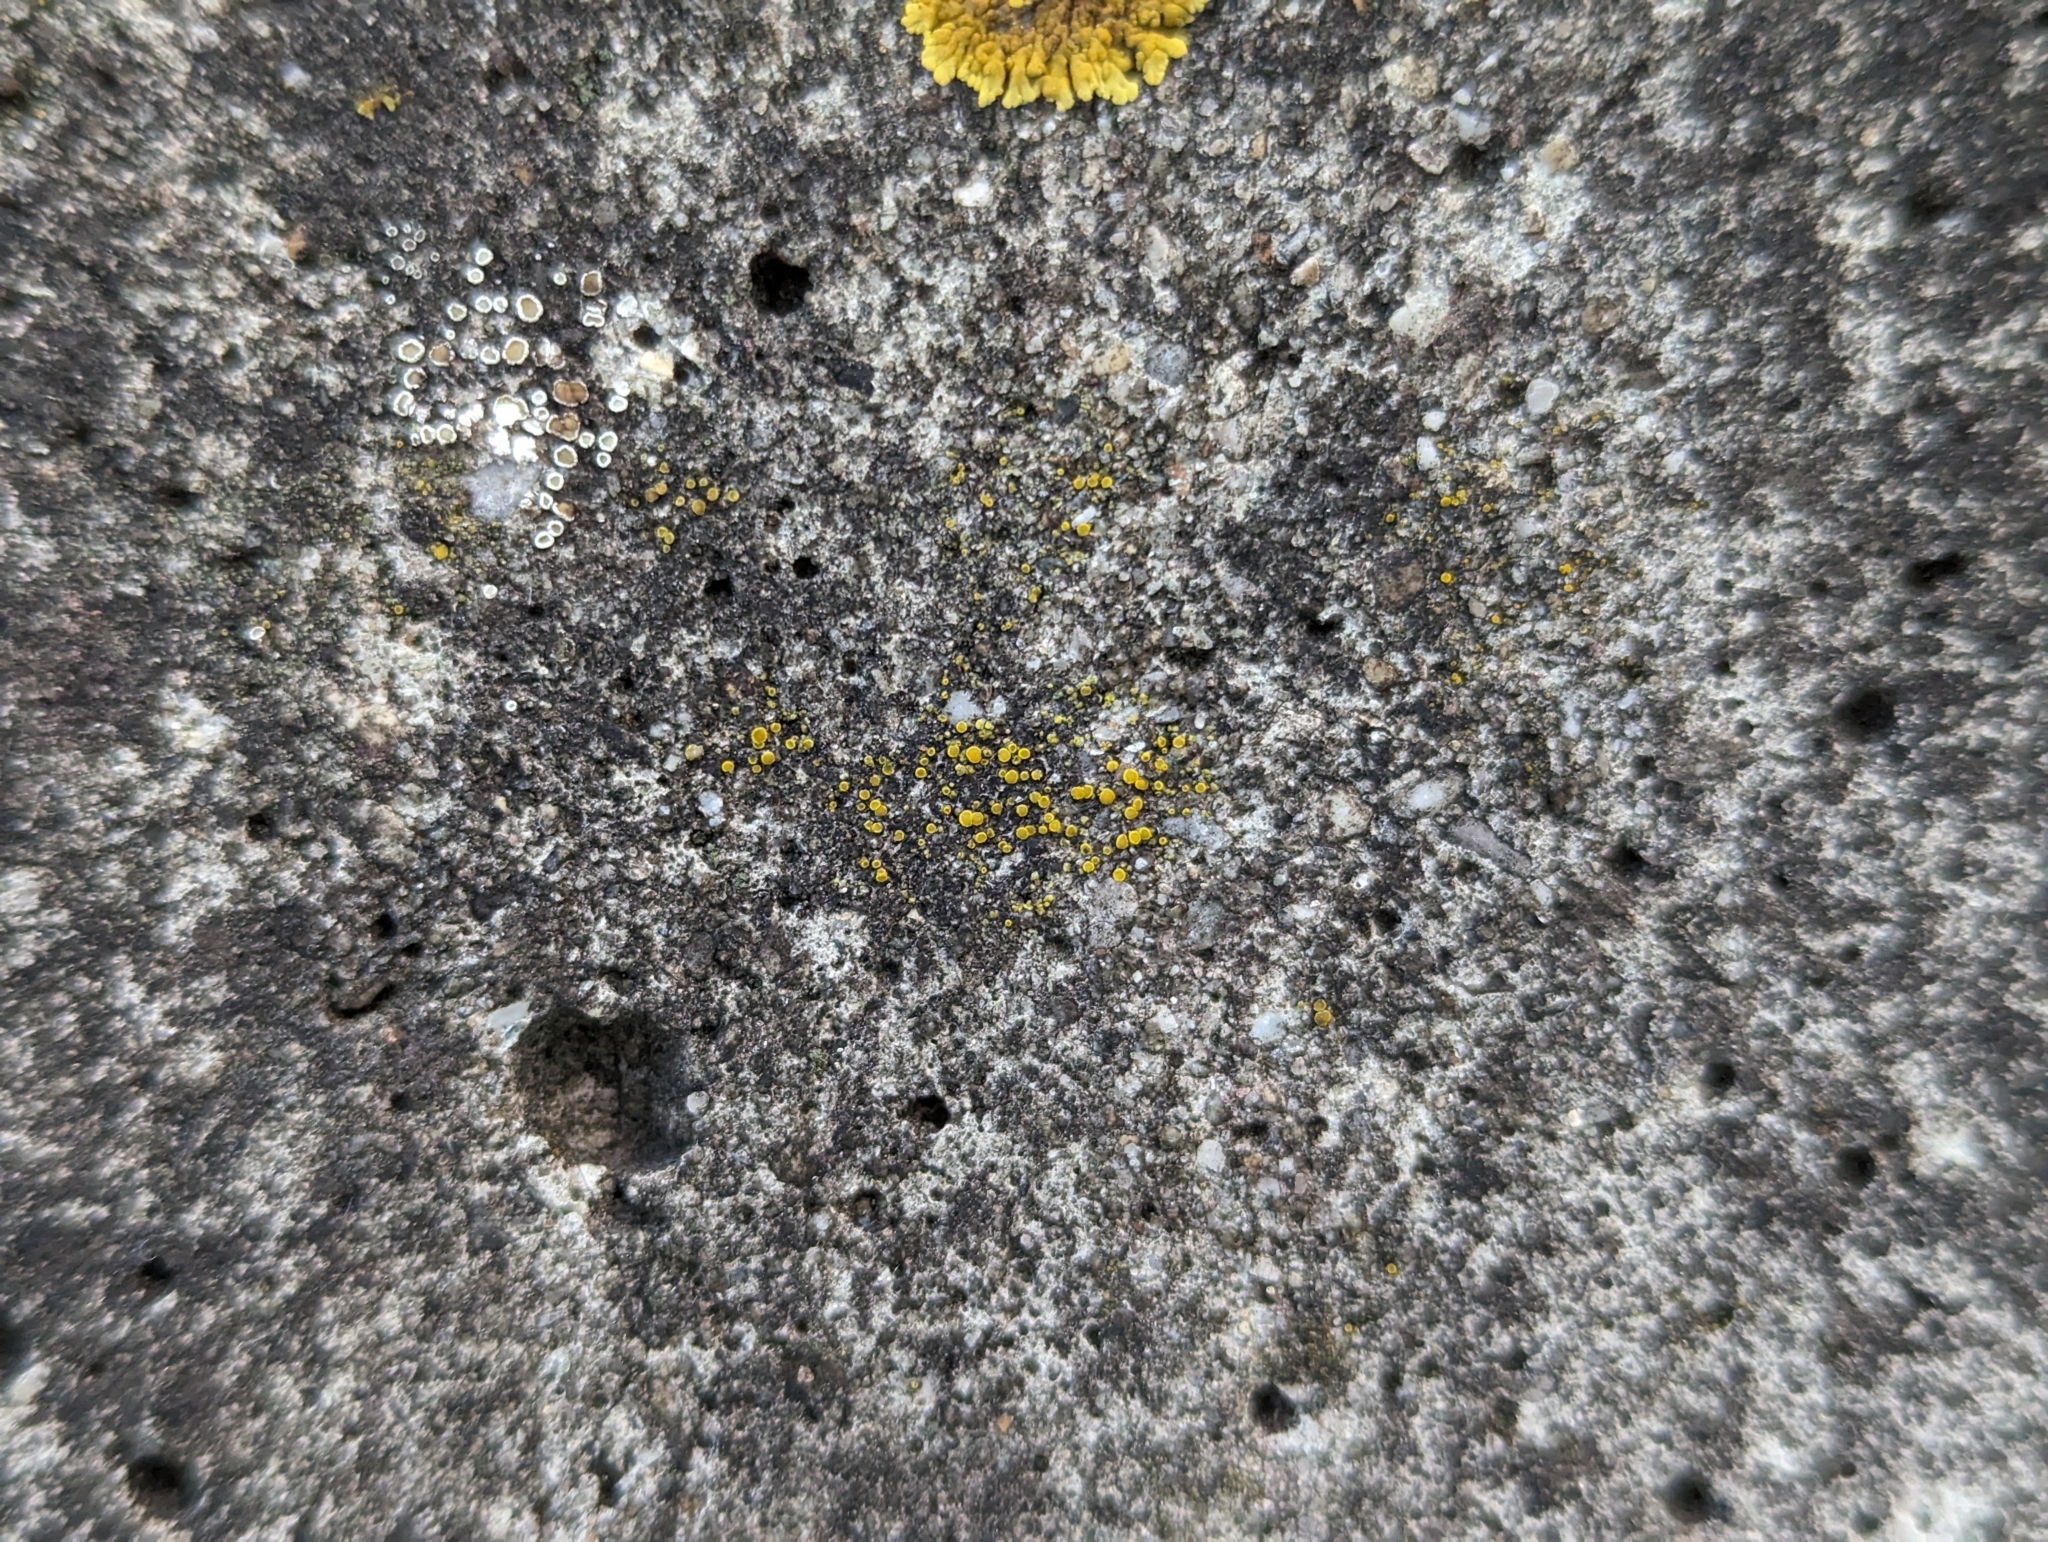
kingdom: Fungi
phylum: Ascomycota
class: Candelariomycetes
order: Candelariales
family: Candelariaceae
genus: Candelariella
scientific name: Candelariella aurella
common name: Hidden goldspeck lichen
